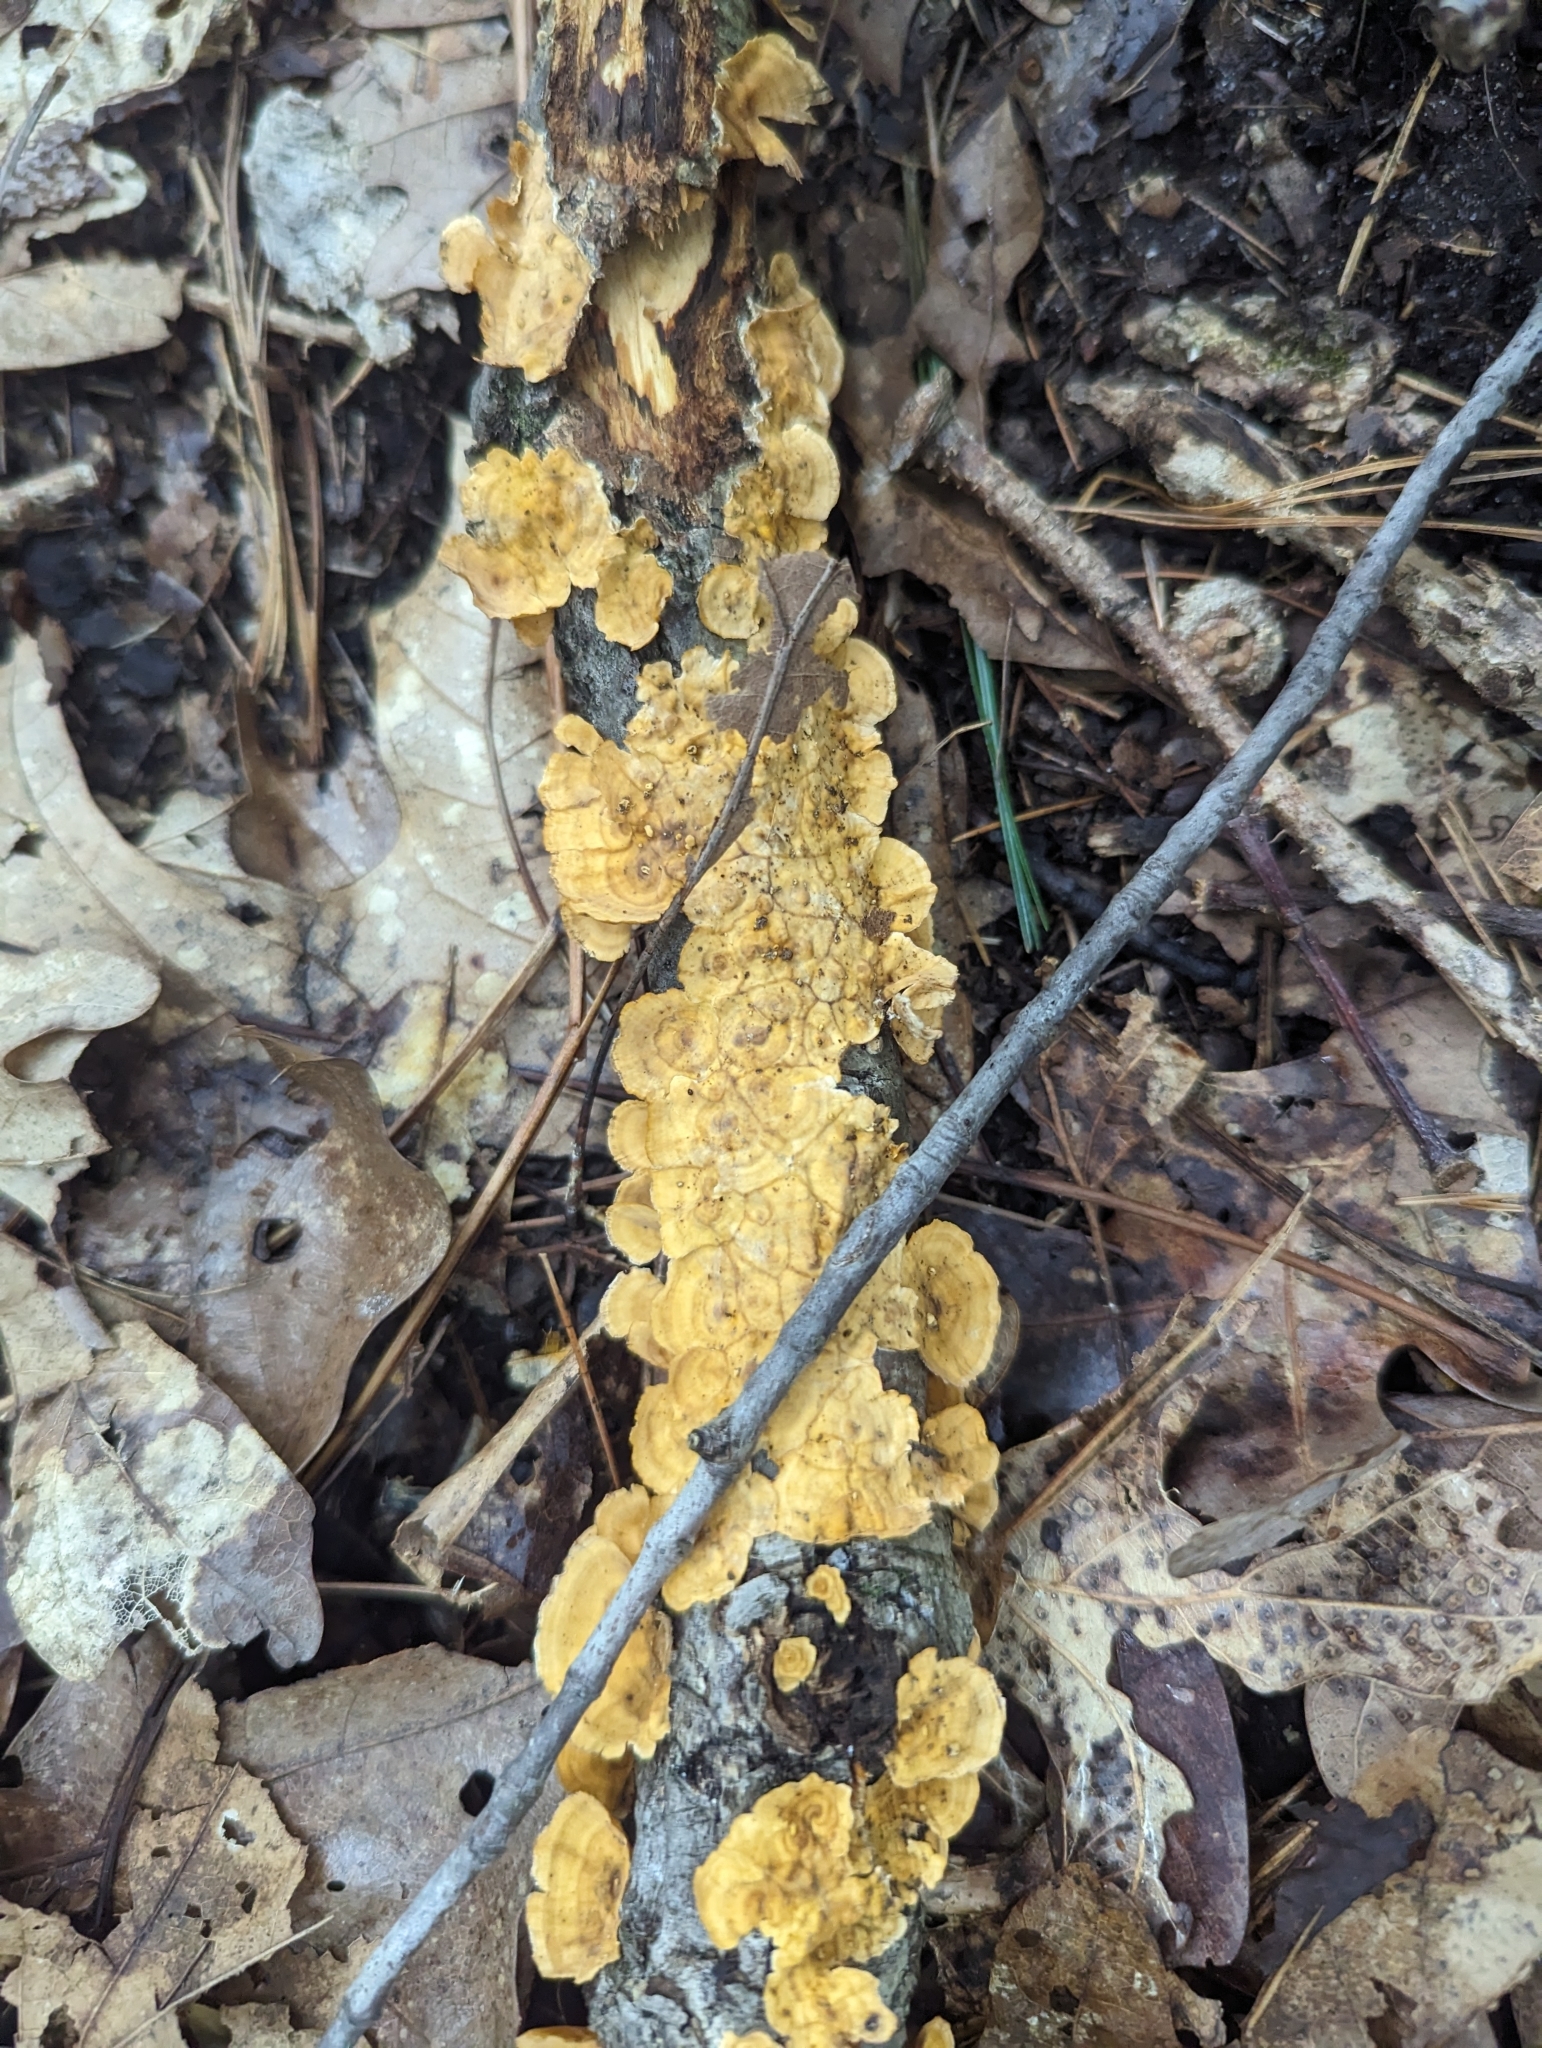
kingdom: Fungi
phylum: Basidiomycota
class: Agaricomycetes
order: Russulales
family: Stereaceae
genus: Stereum
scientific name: Stereum complicatum
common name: Crowded parchment
